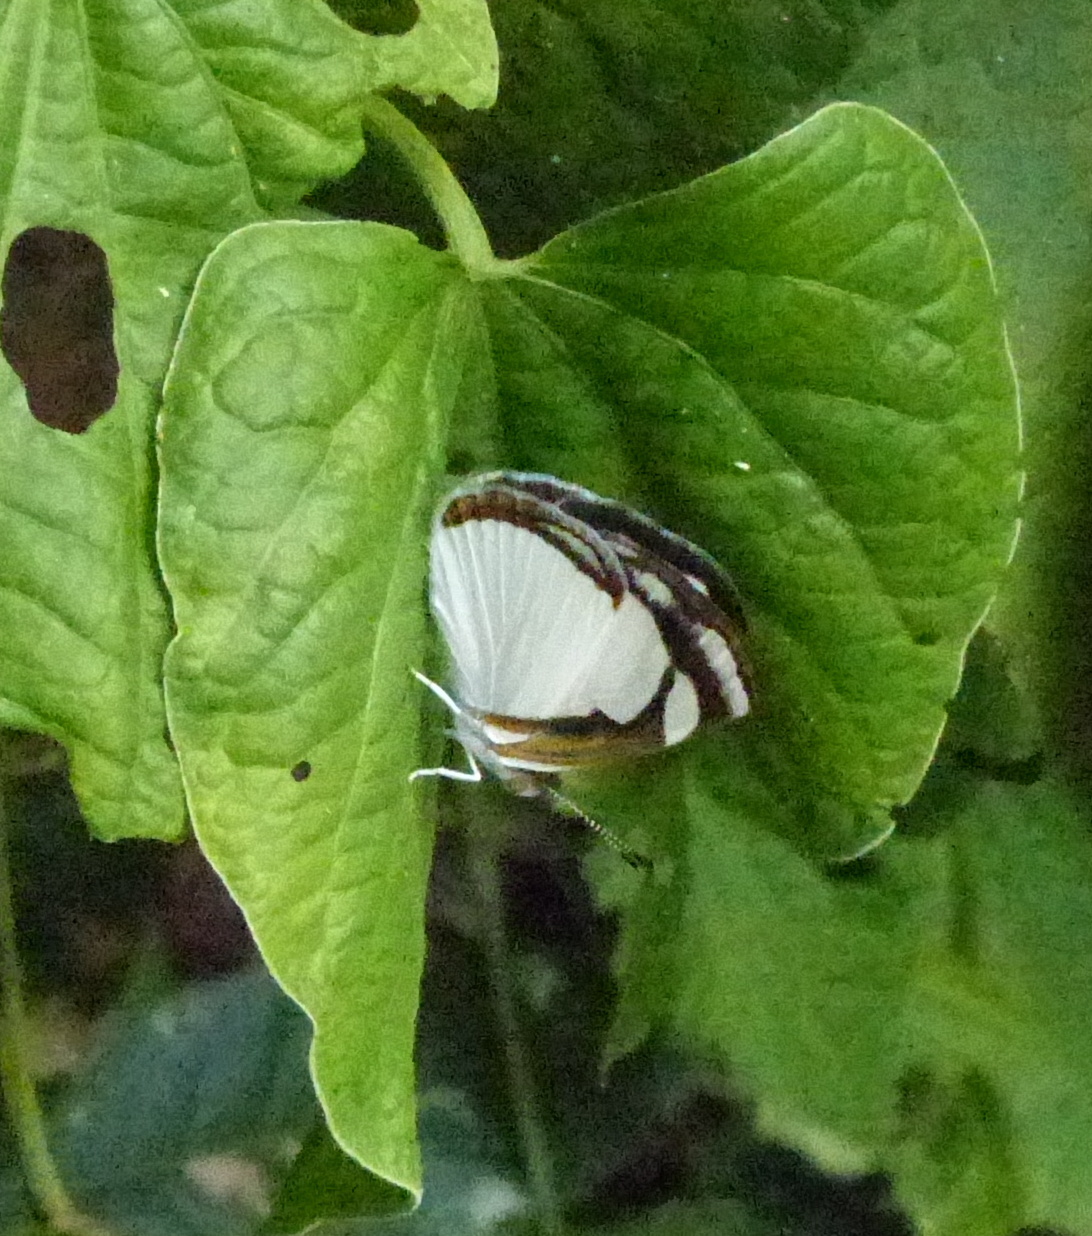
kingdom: Animalia
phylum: Arthropoda
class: Insecta
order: Lepidoptera
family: Nymphalidae
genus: Dynamine
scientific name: Dynamine agacles
